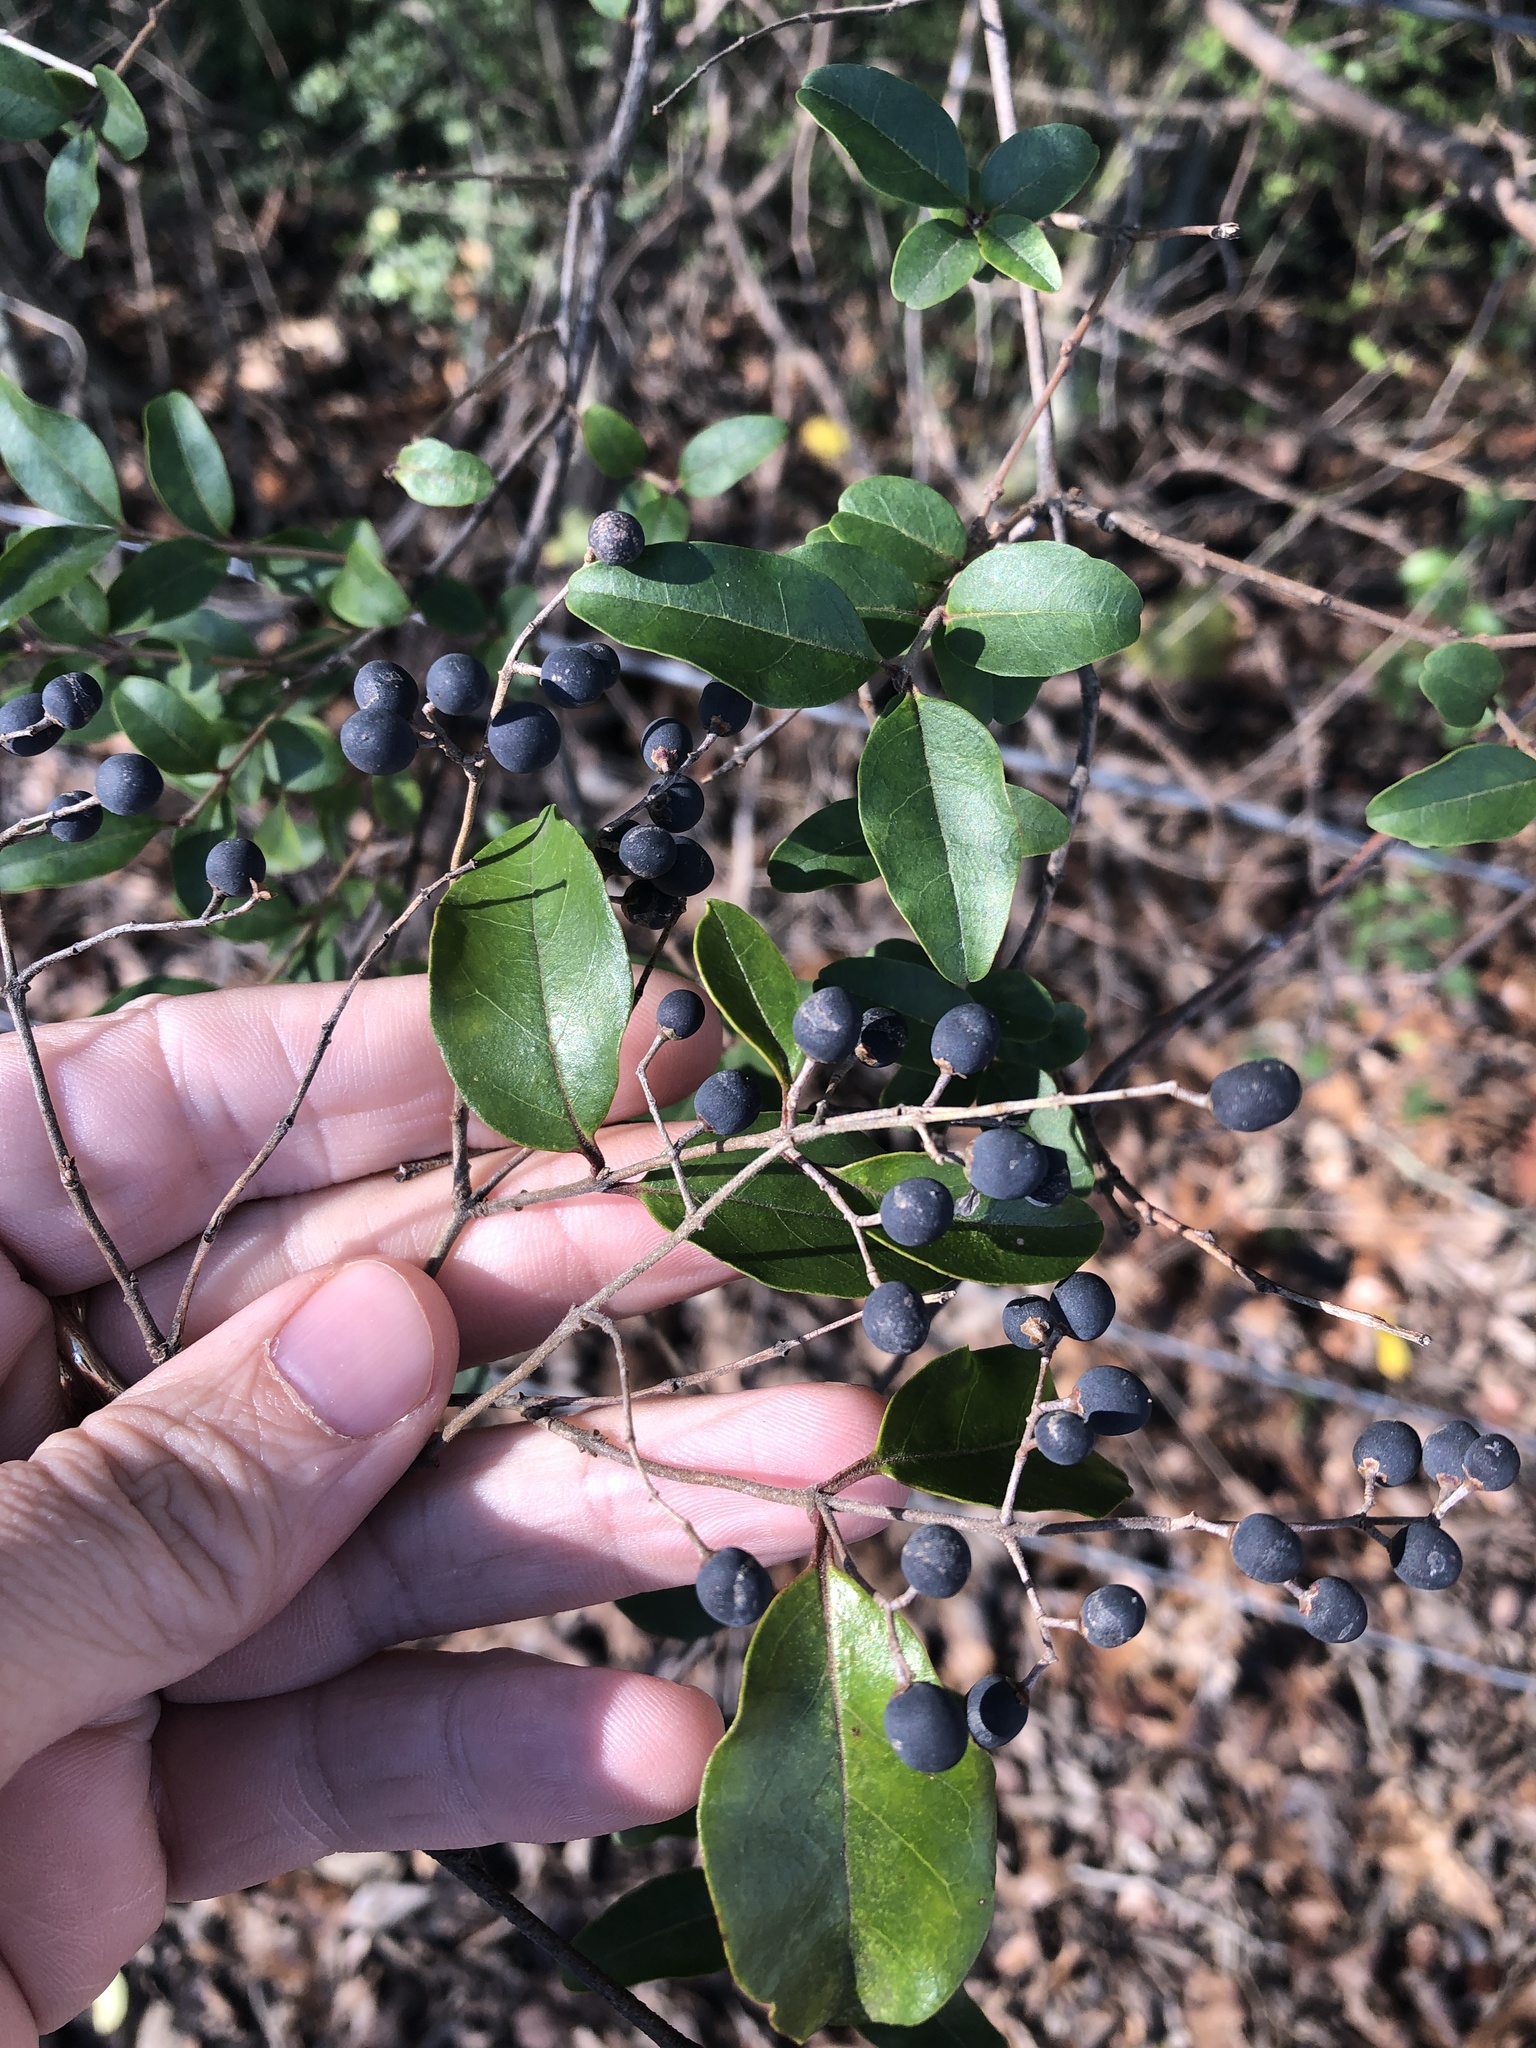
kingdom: Plantae
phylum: Tracheophyta
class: Magnoliopsida
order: Lamiales
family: Oleaceae
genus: Ligustrum
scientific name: Ligustrum sinense
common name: Chinese privet
